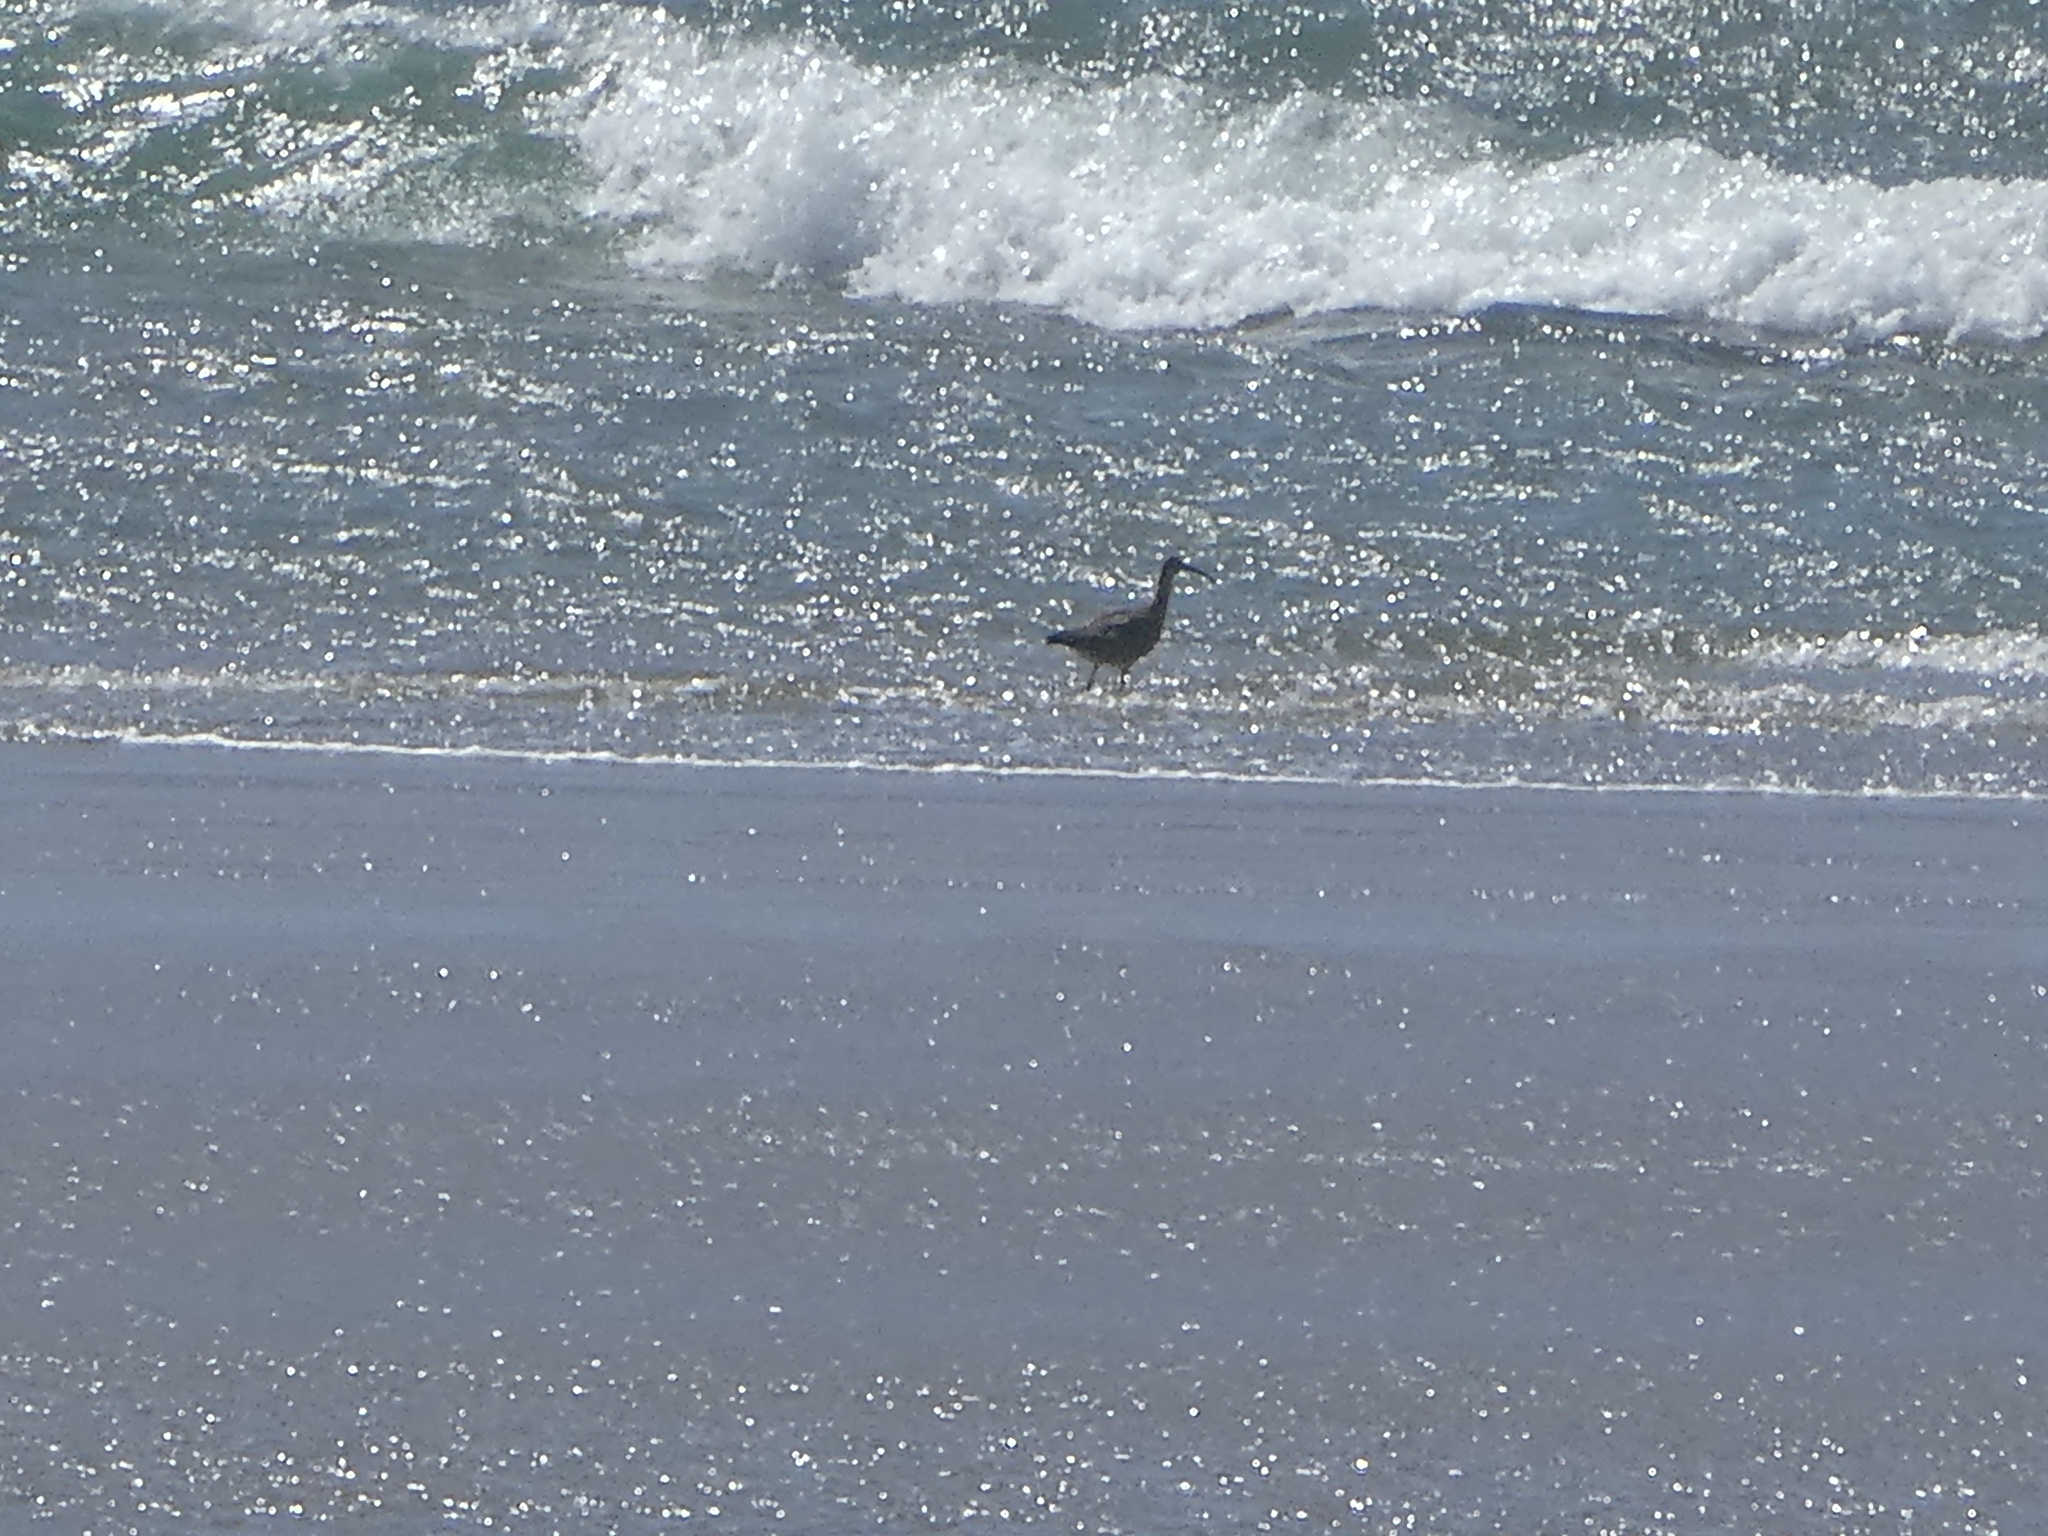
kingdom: Animalia
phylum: Chordata
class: Aves
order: Charadriiformes
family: Scolopacidae
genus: Numenius
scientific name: Numenius phaeopus
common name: Whimbrel
